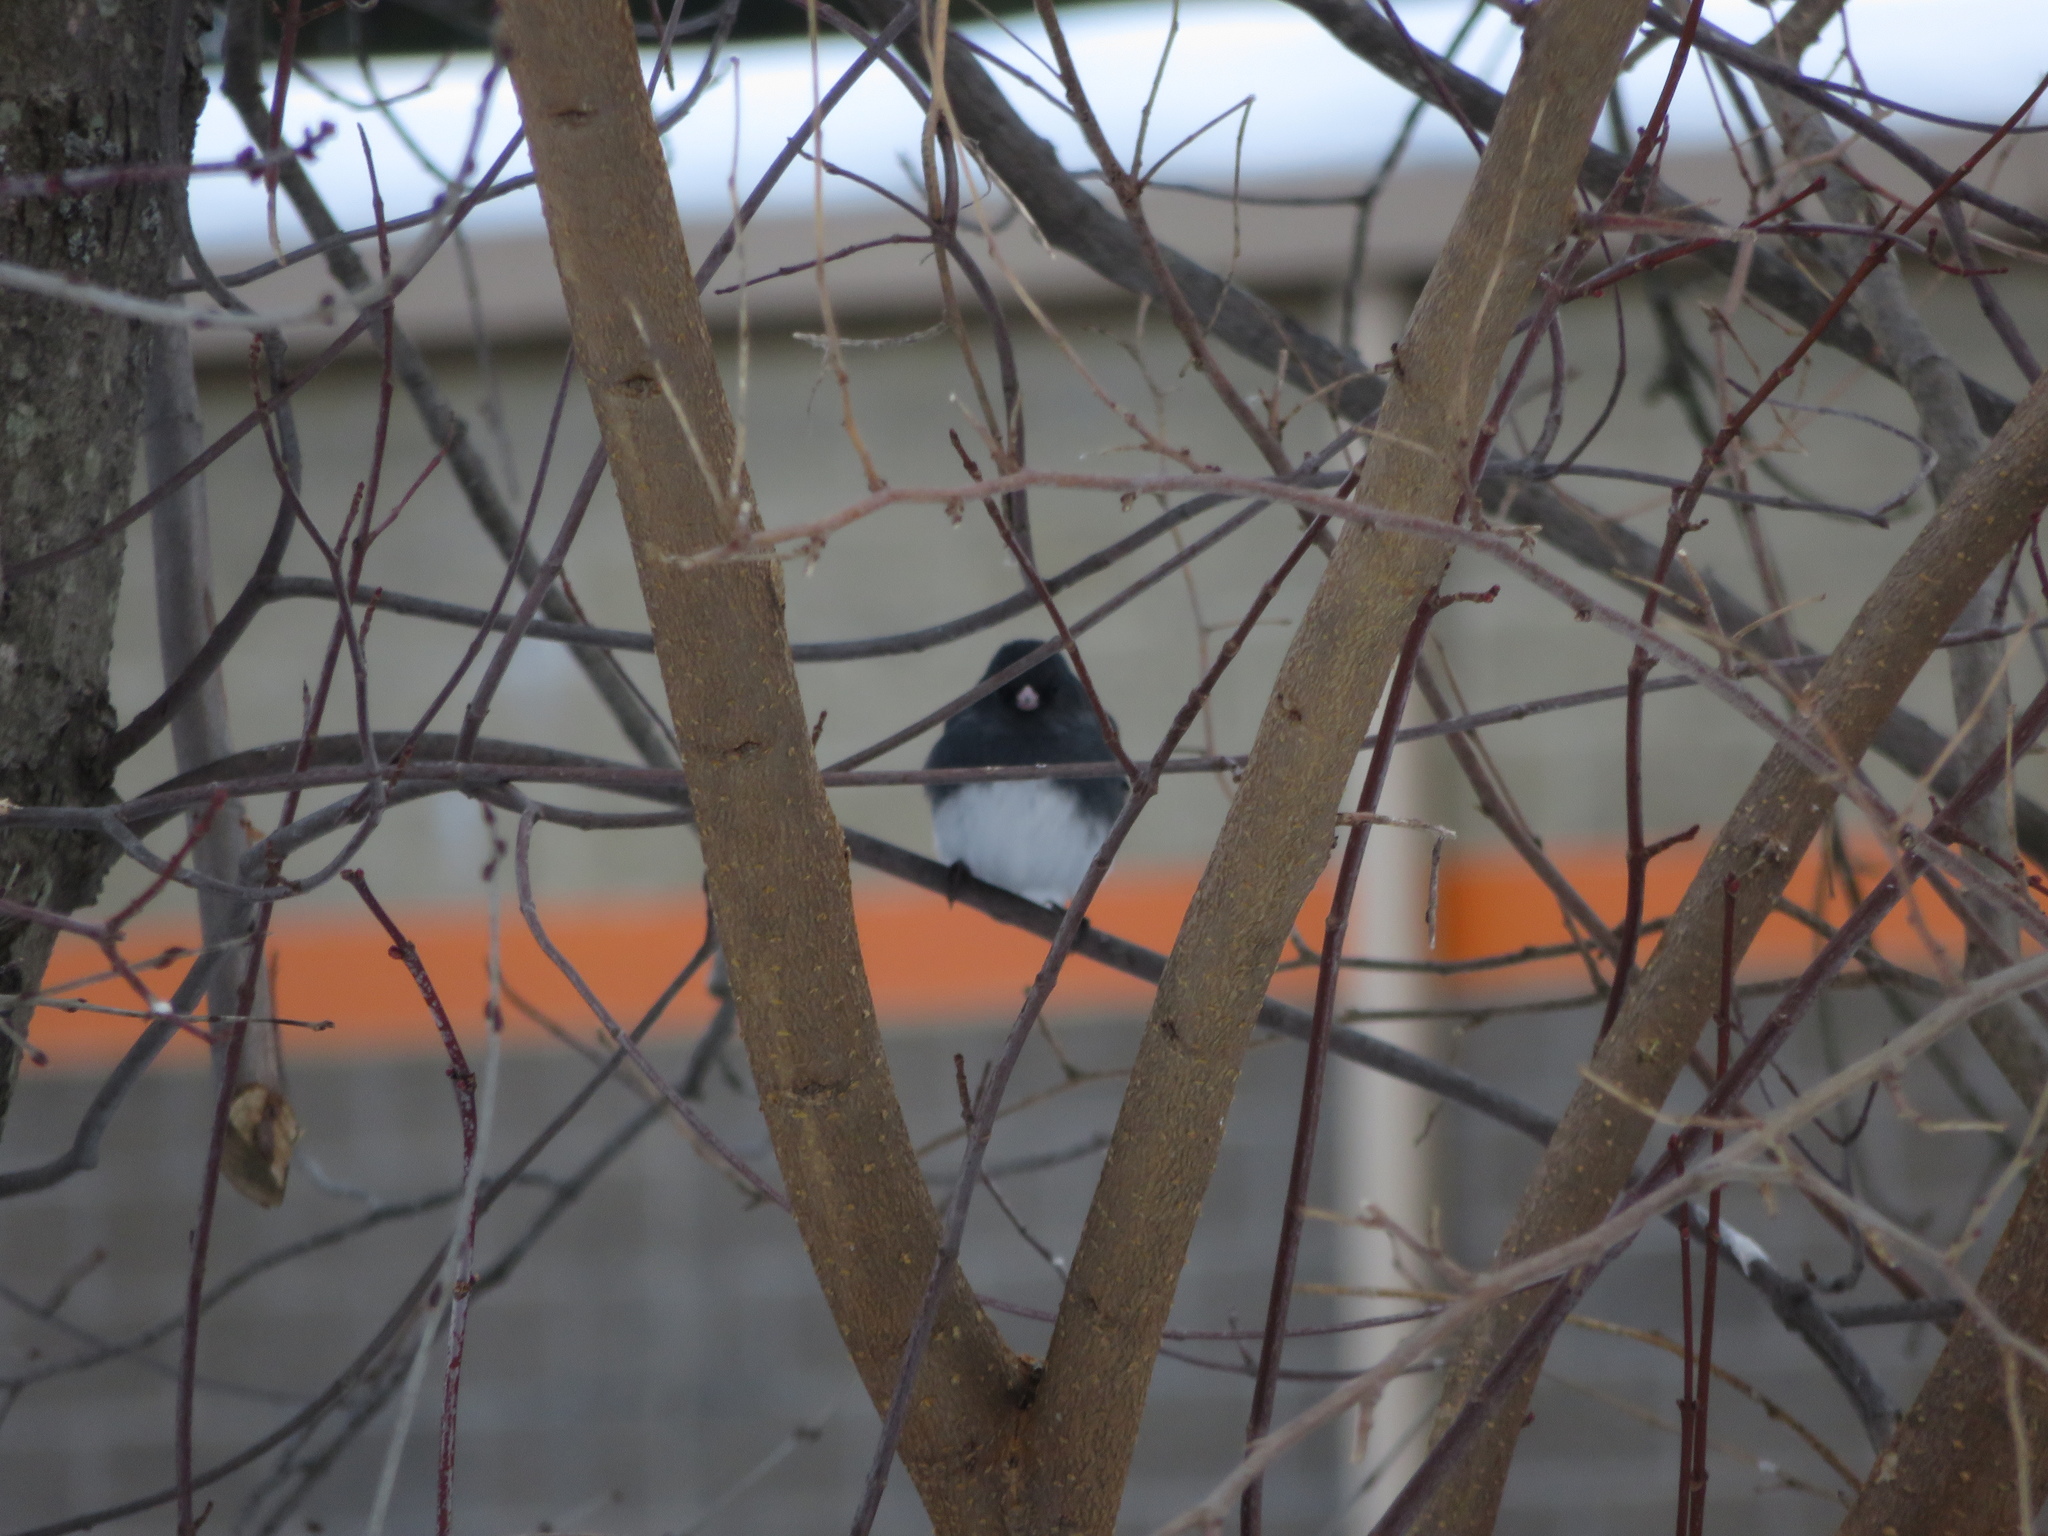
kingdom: Animalia
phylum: Chordata
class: Aves
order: Passeriformes
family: Passerellidae
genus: Junco
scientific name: Junco hyemalis
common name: Dark-eyed junco
